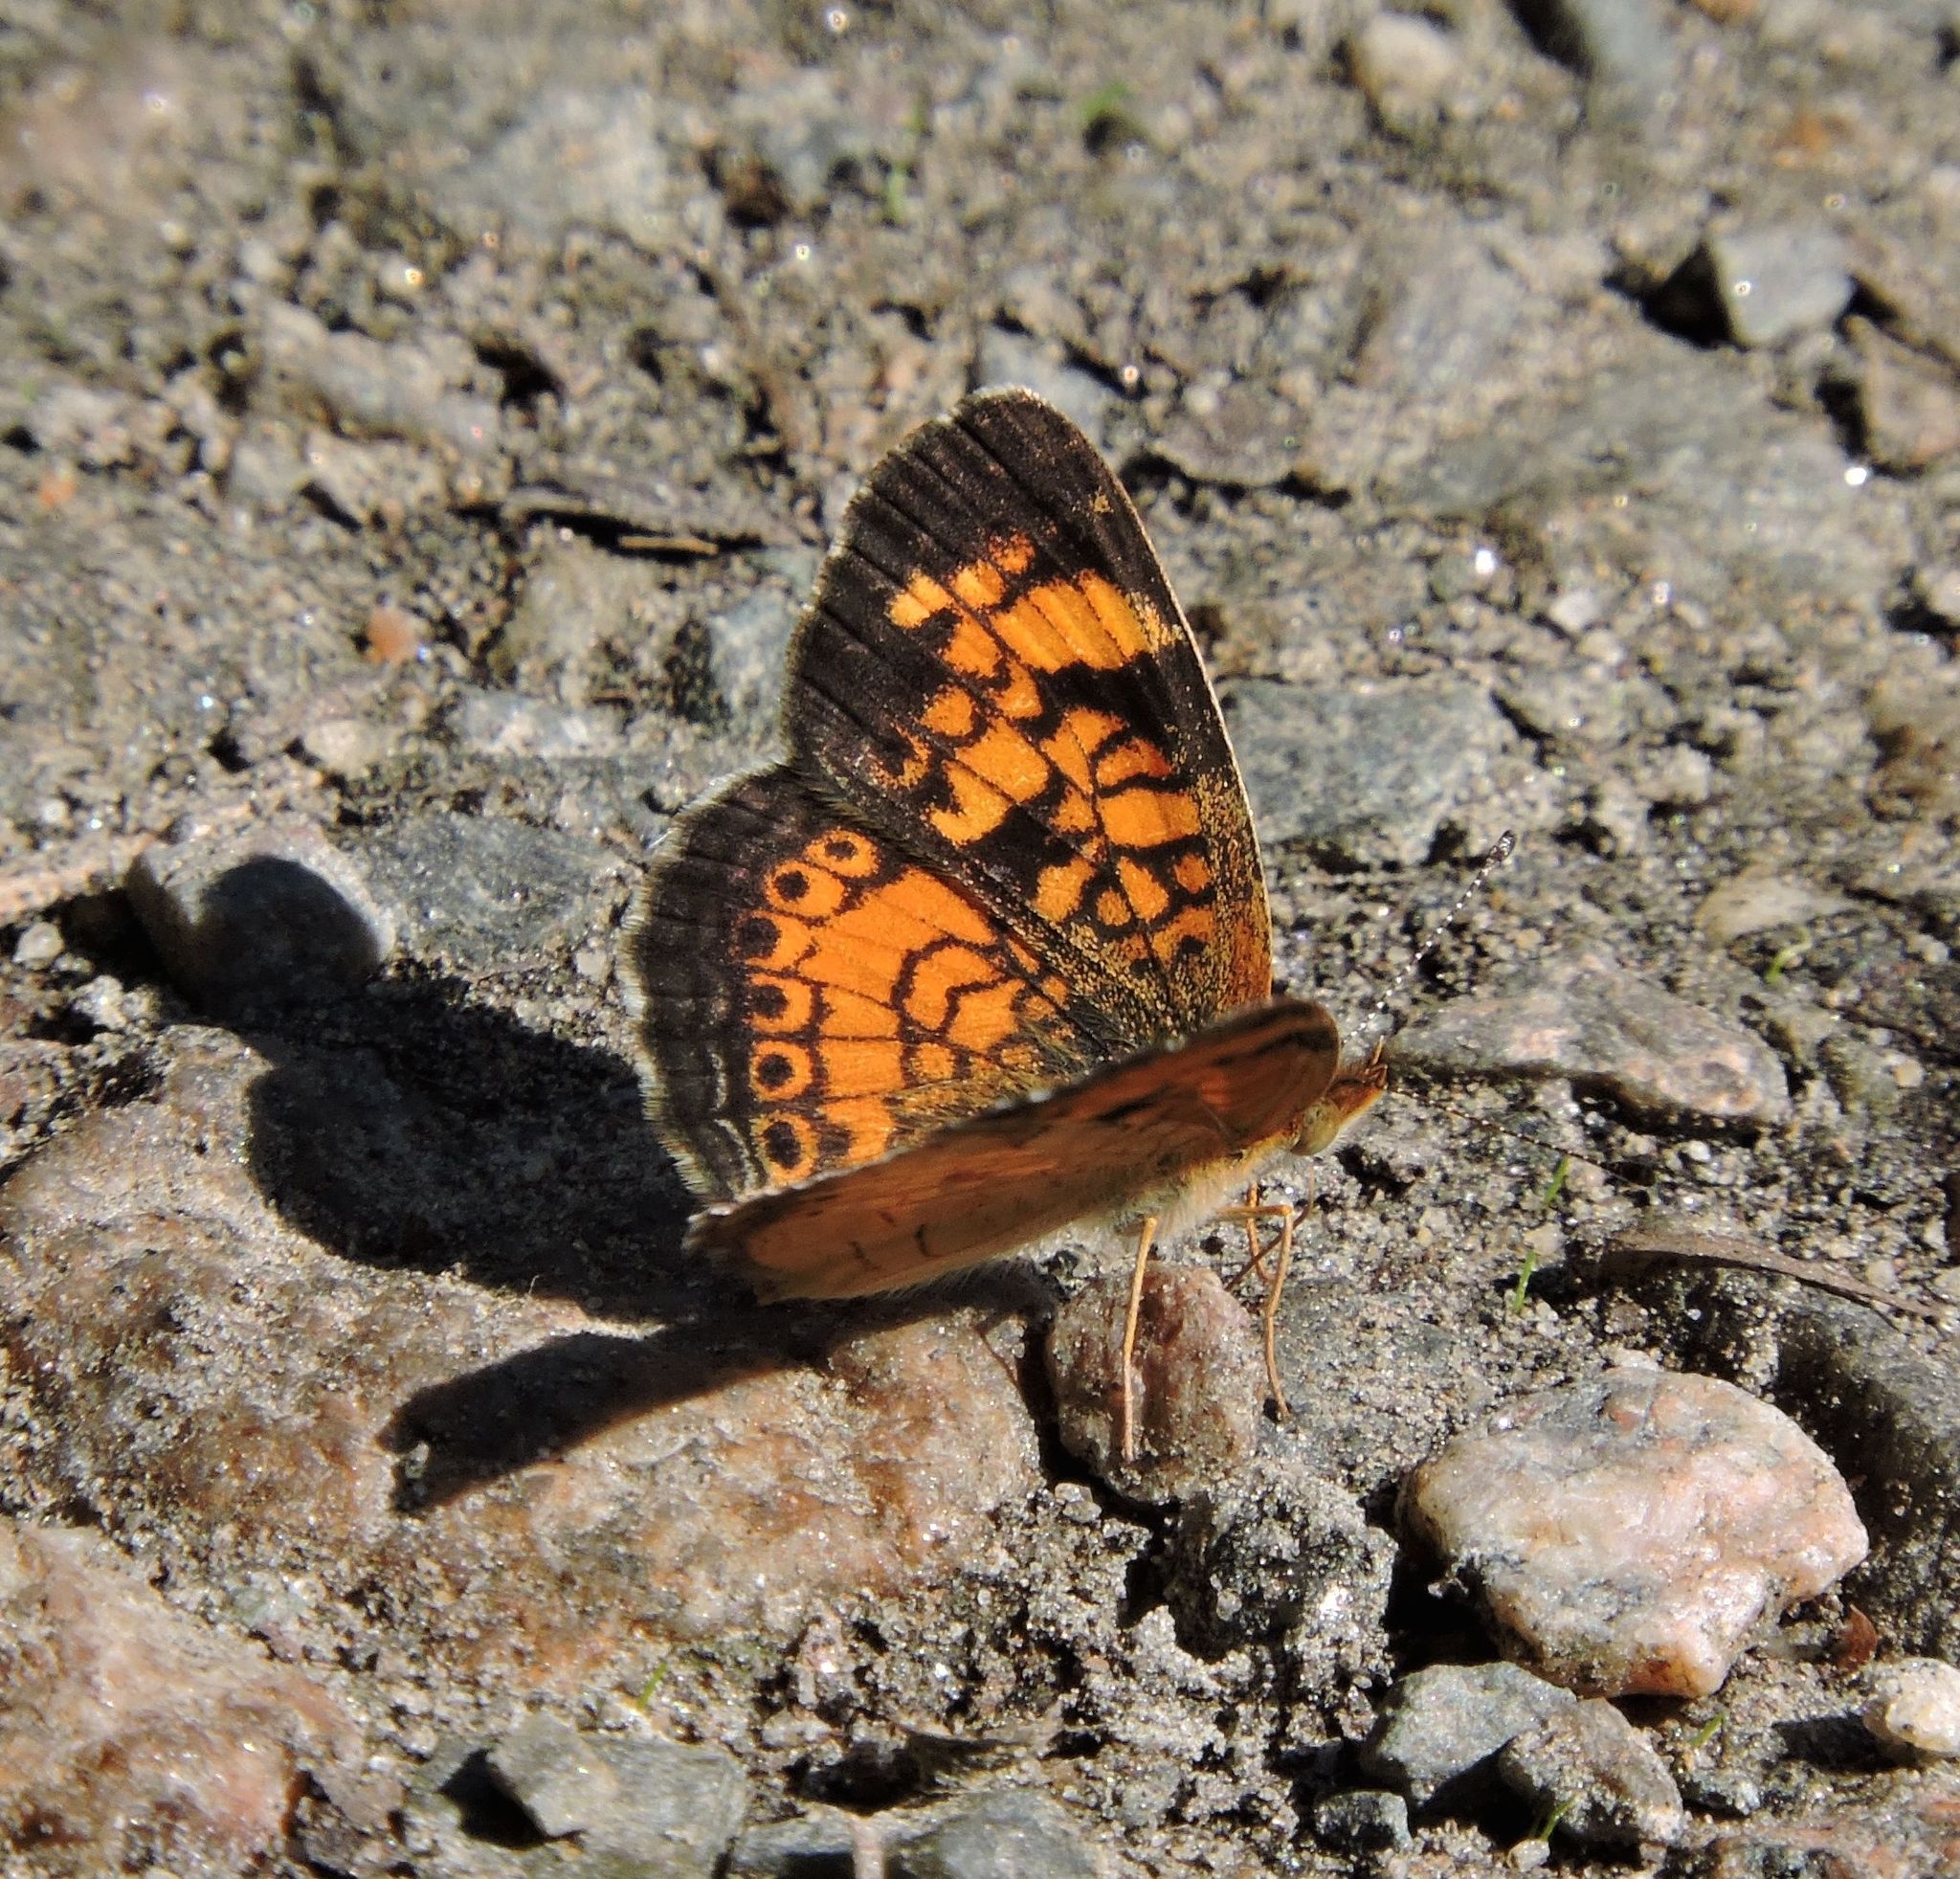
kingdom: Animalia
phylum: Arthropoda
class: Insecta
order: Lepidoptera
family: Nymphalidae
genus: Phyciodes
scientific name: Phyciodes tharos
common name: Pearl crescent
